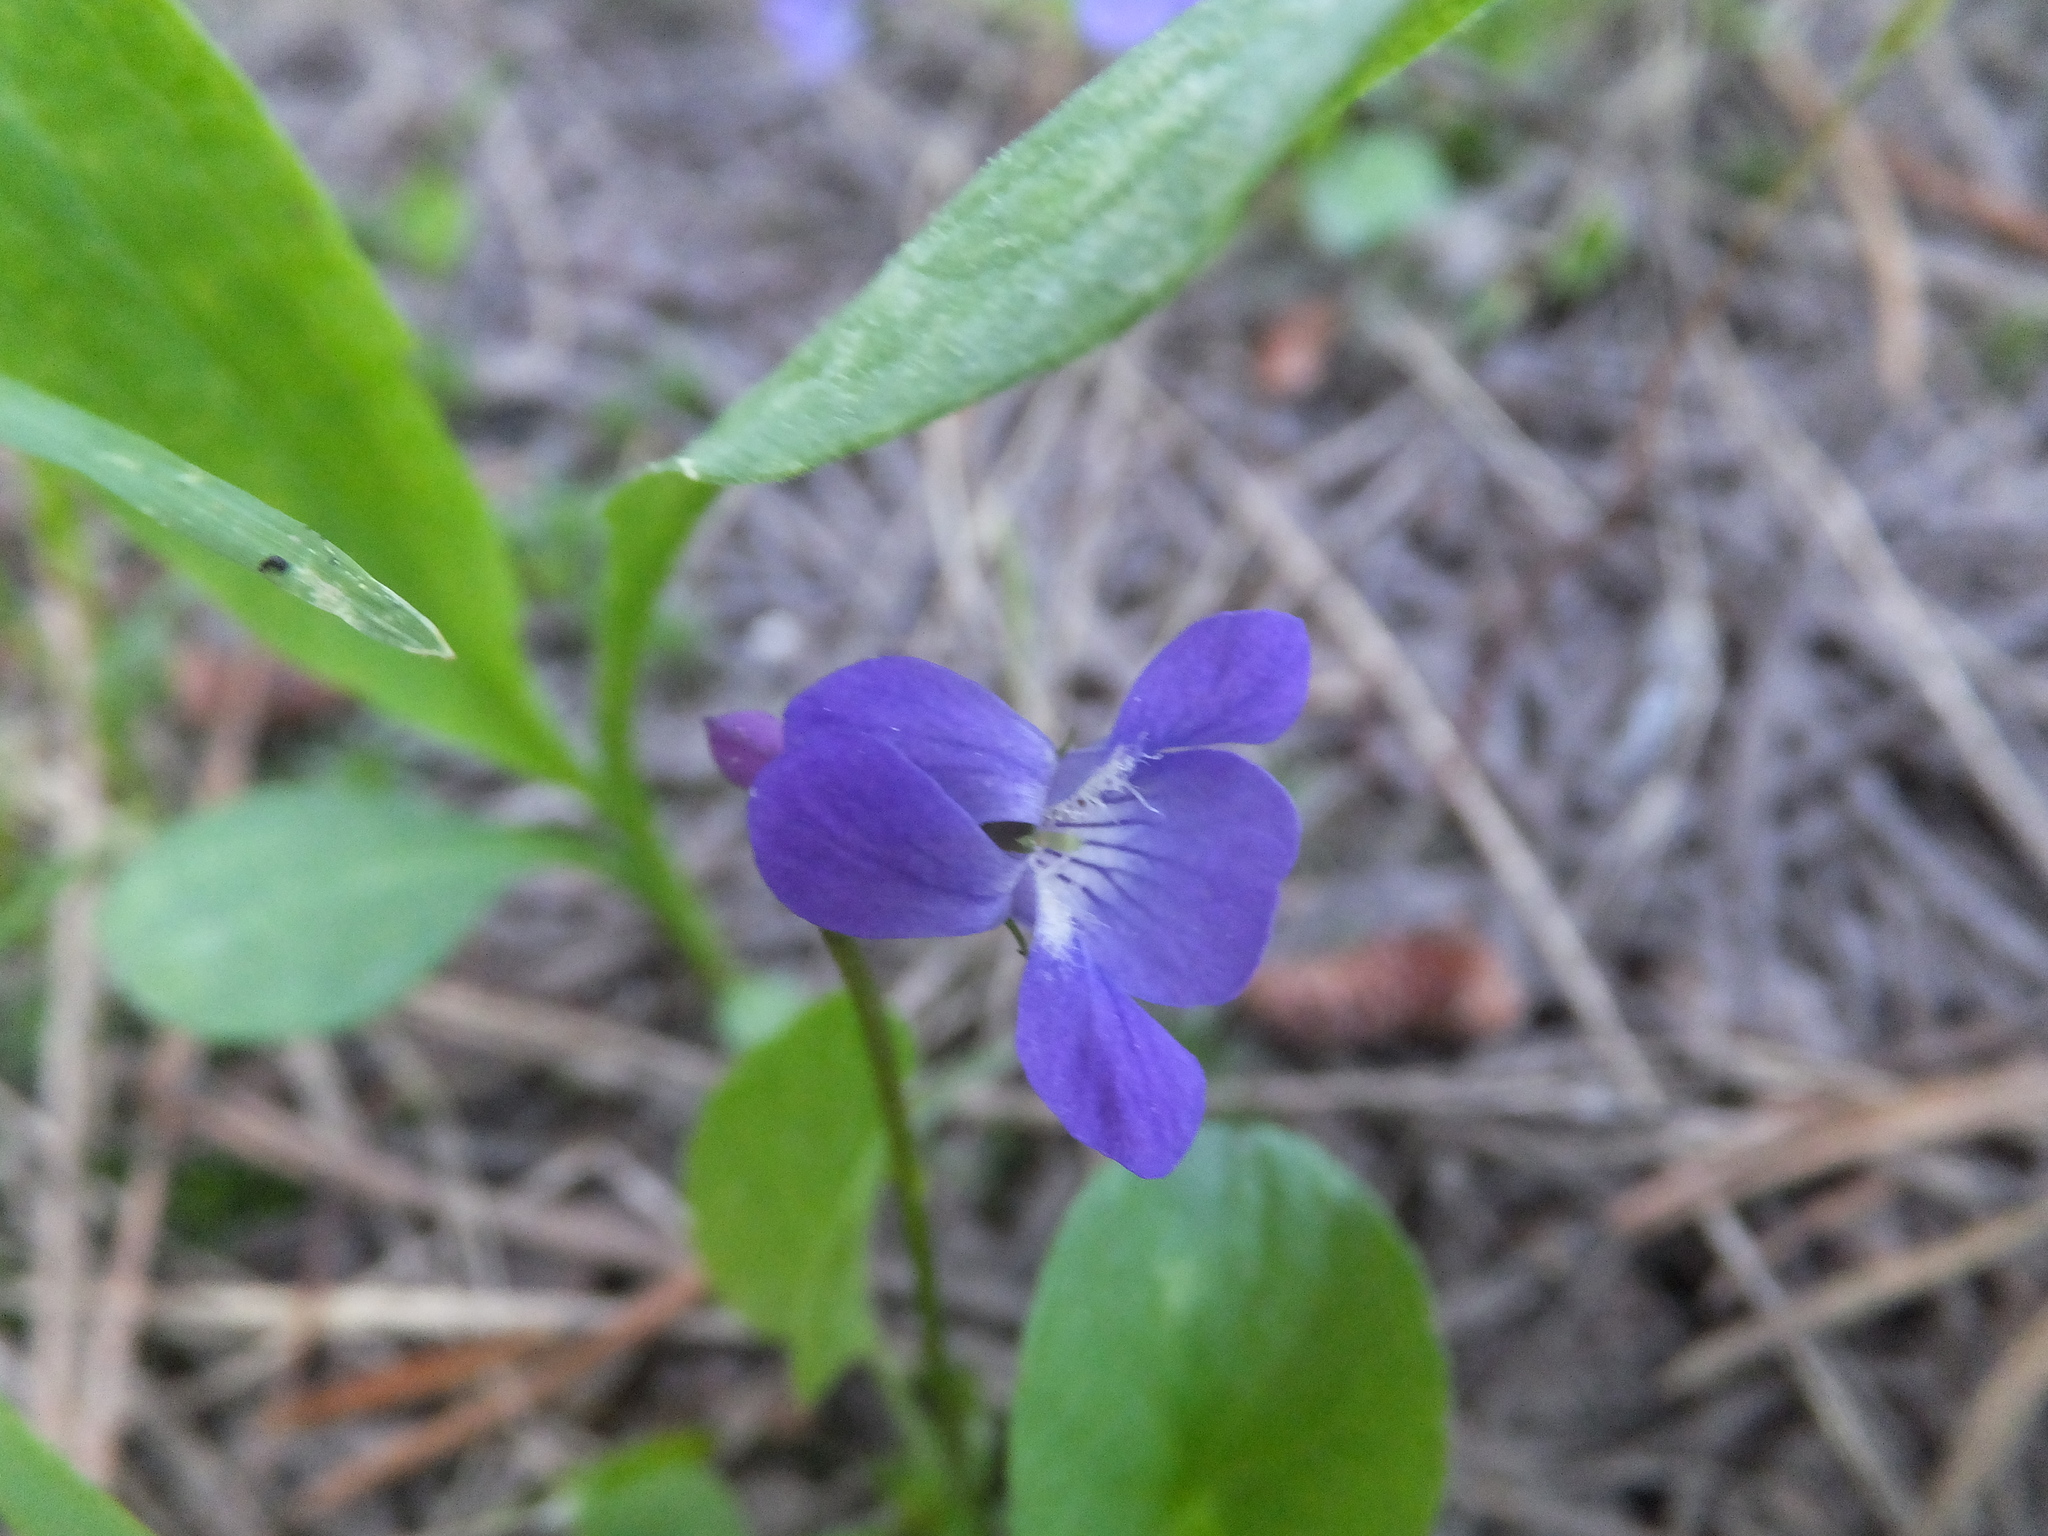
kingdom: Plantae
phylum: Tracheophyta
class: Magnoliopsida
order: Malpighiales
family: Violaceae
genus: Viola
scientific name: Viola adunca
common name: Sand violet
